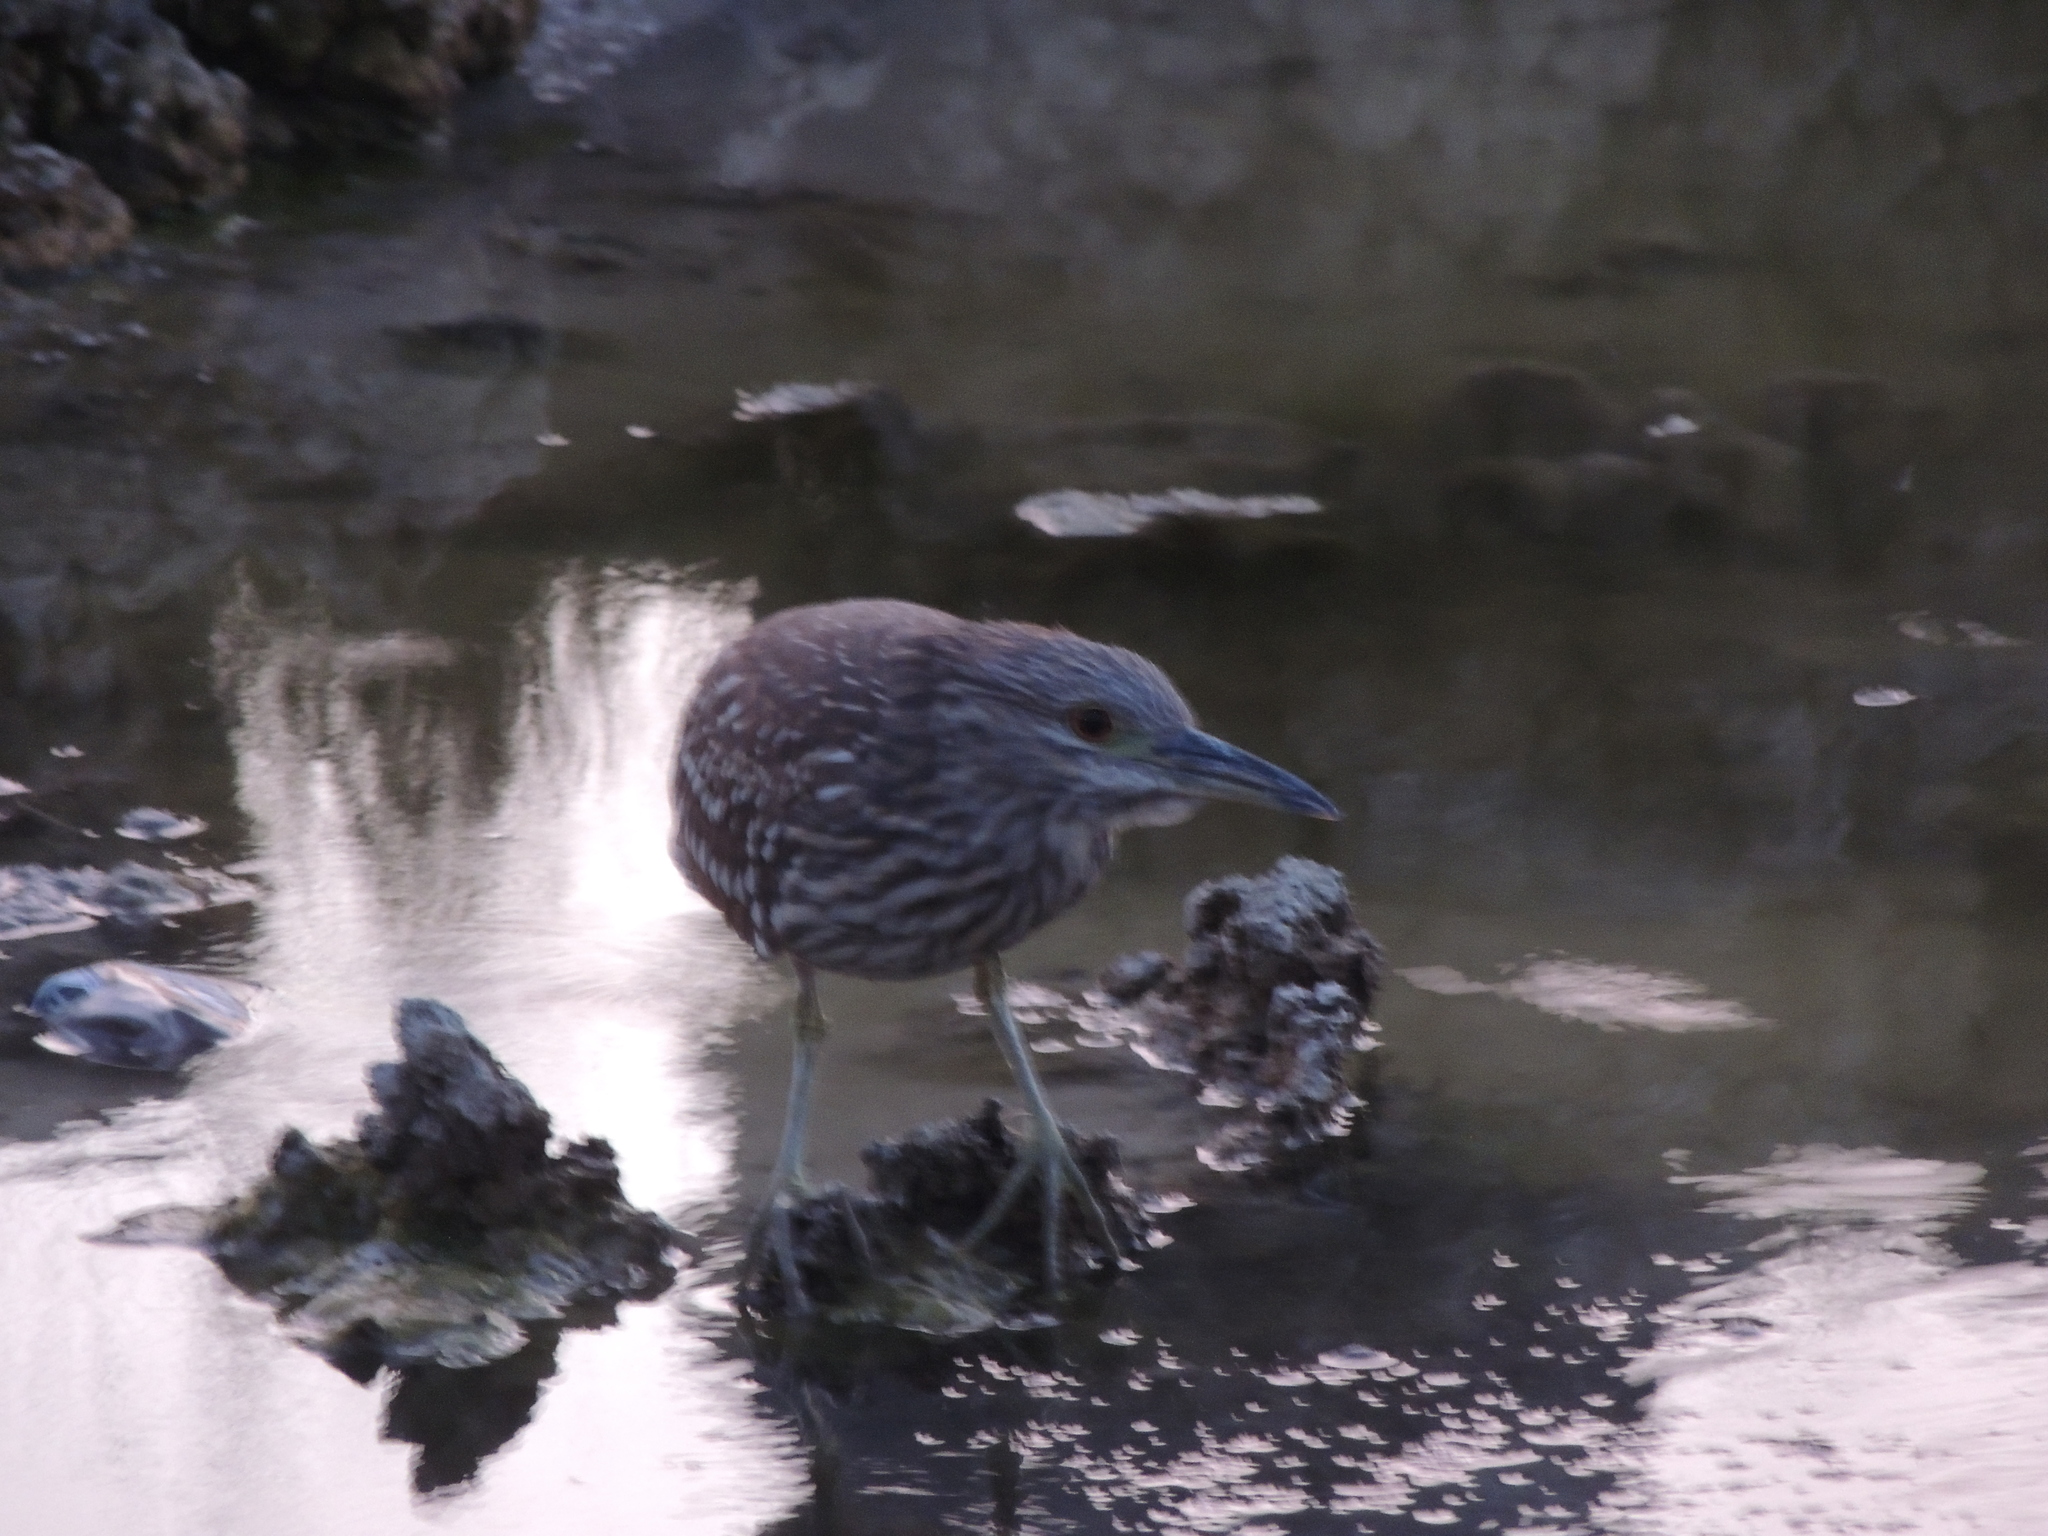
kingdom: Animalia
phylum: Chordata
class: Aves
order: Pelecaniformes
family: Ardeidae
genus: Nycticorax
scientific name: Nycticorax nycticorax
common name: Black-crowned night heron
